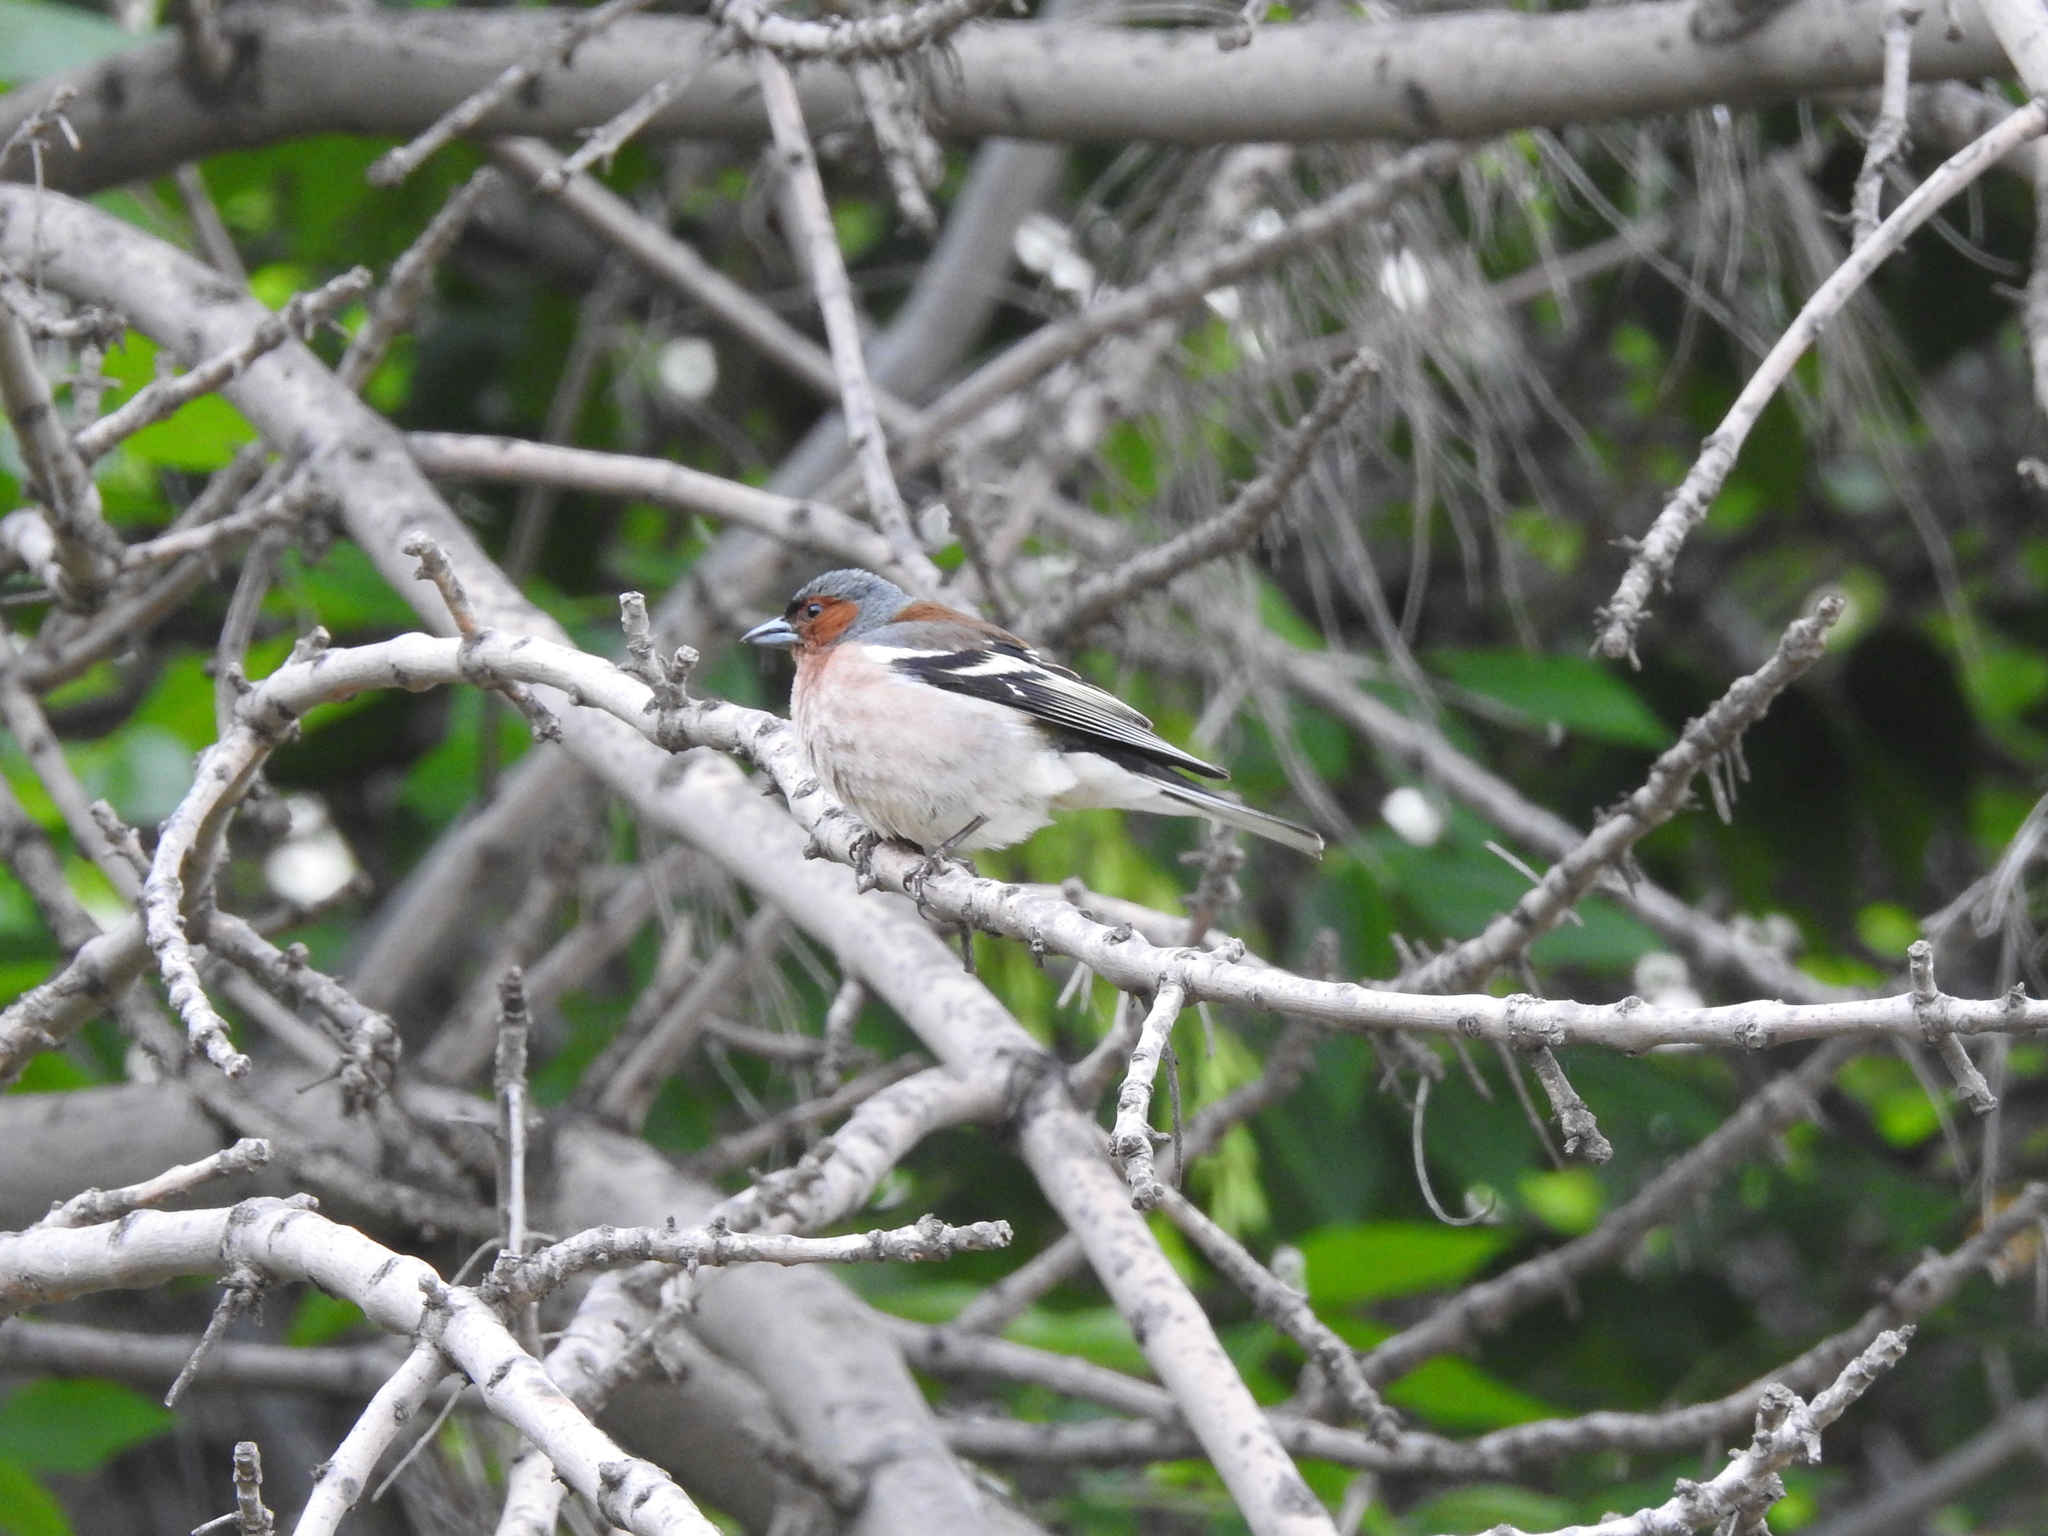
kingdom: Animalia
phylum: Chordata
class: Aves
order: Passeriformes
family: Fringillidae
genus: Fringilla
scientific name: Fringilla coelebs
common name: Common chaffinch
